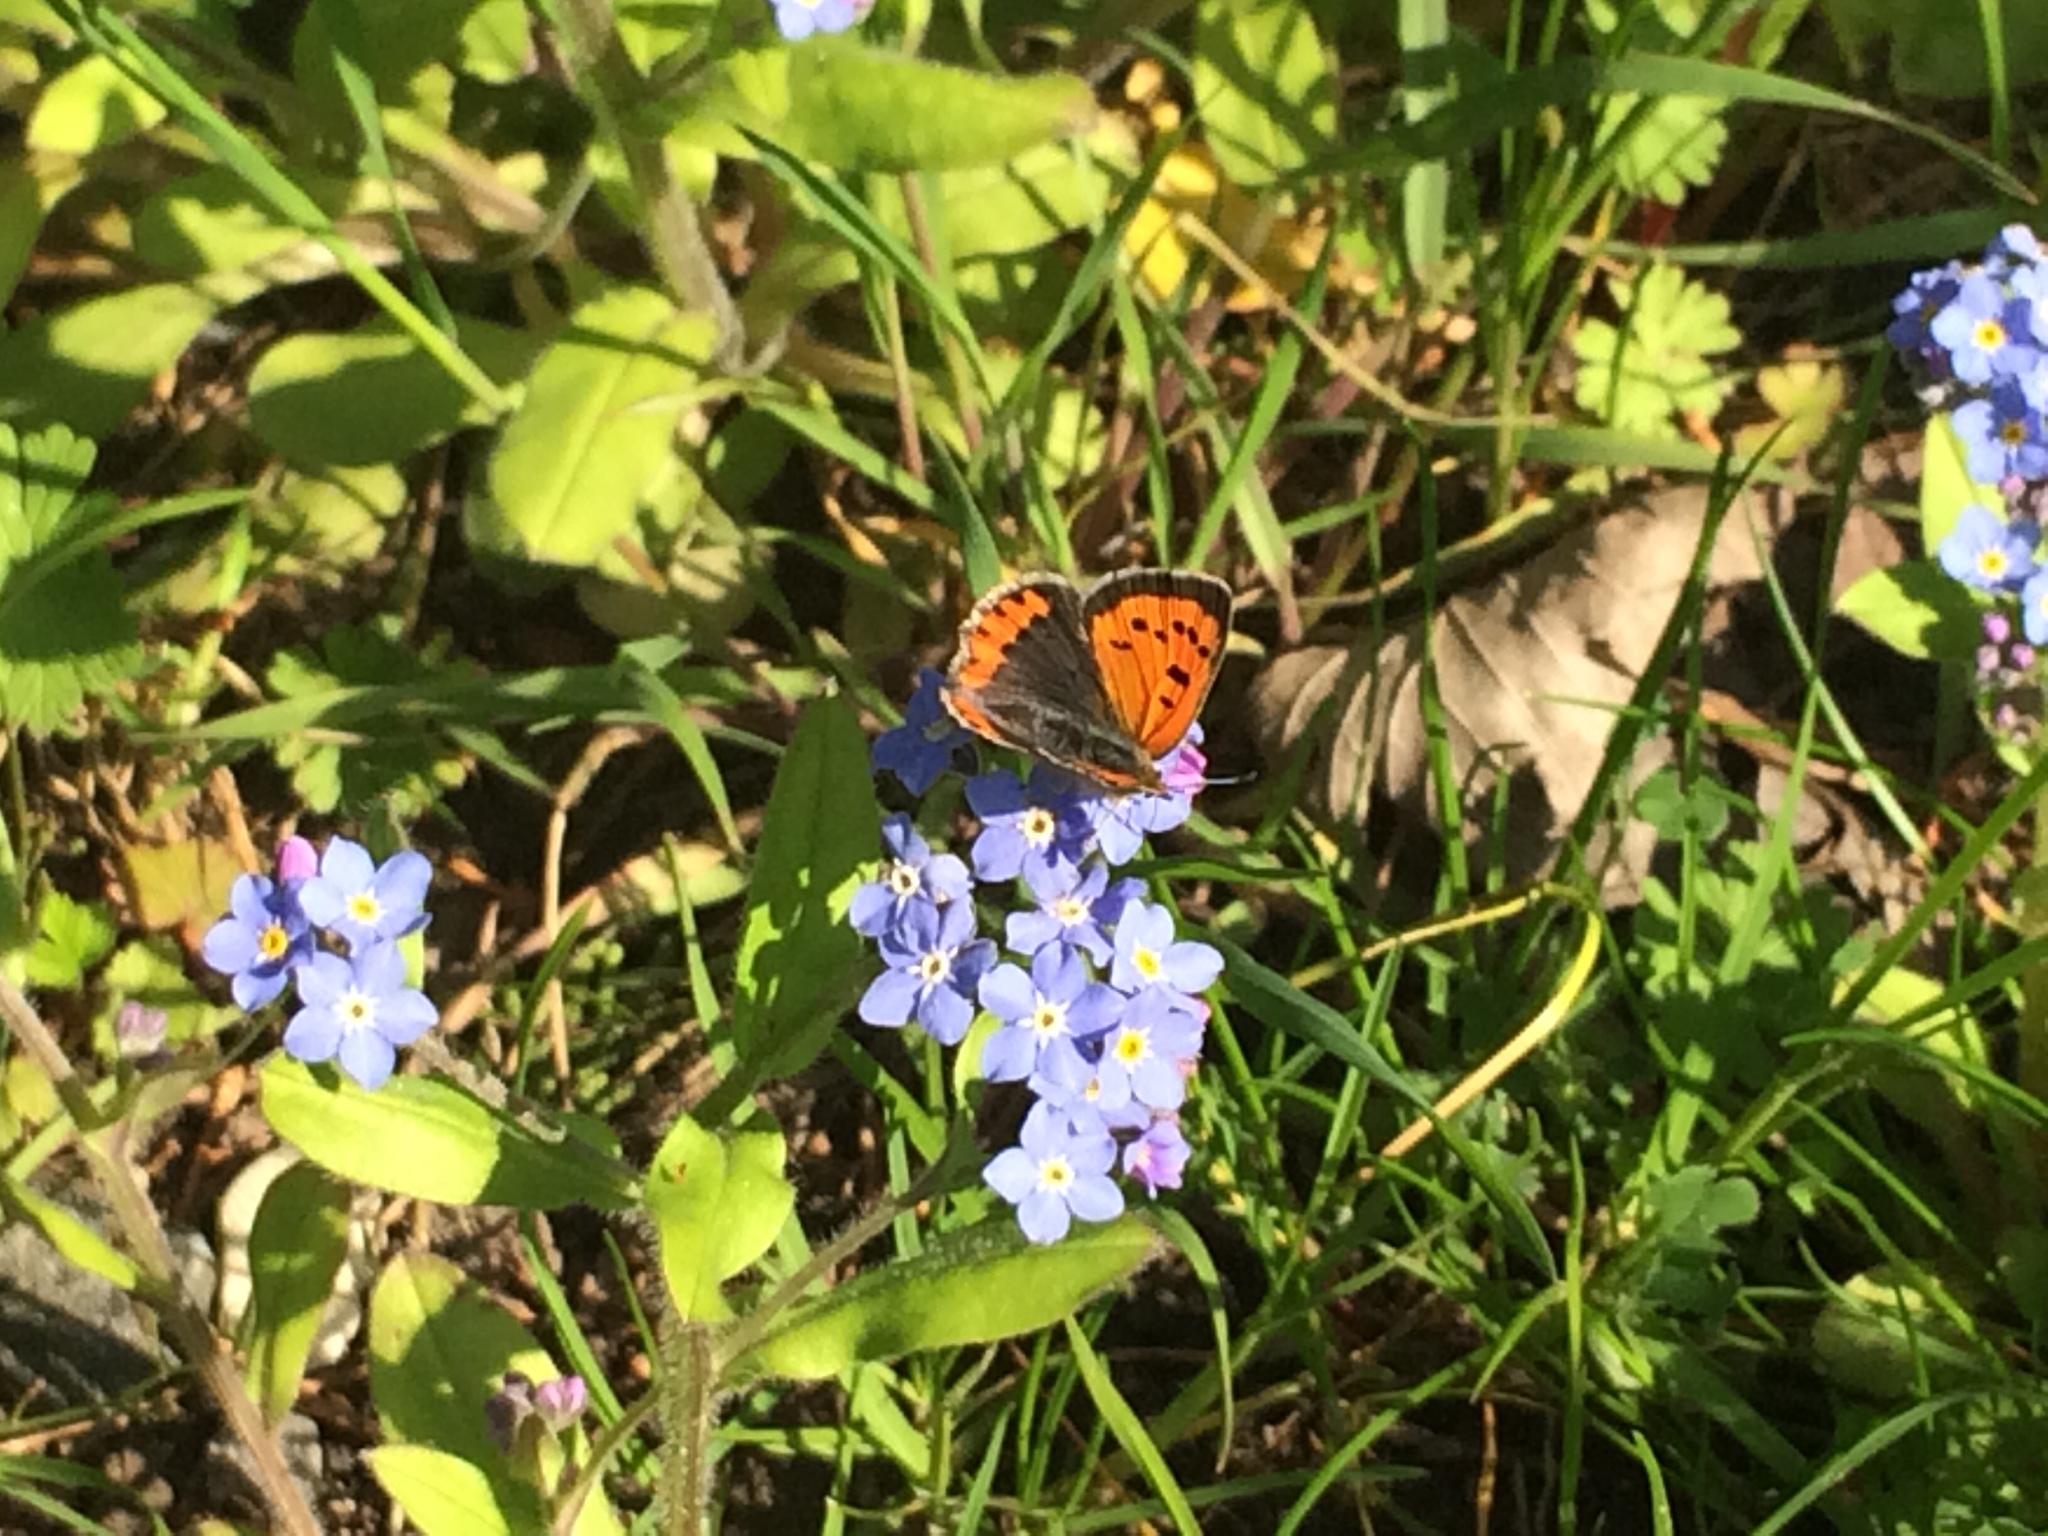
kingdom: Animalia
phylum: Arthropoda
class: Insecta
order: Lepidoptera
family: Lycaenidae
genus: Lycaena
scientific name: Lycaena phlaeas
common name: Small copper
